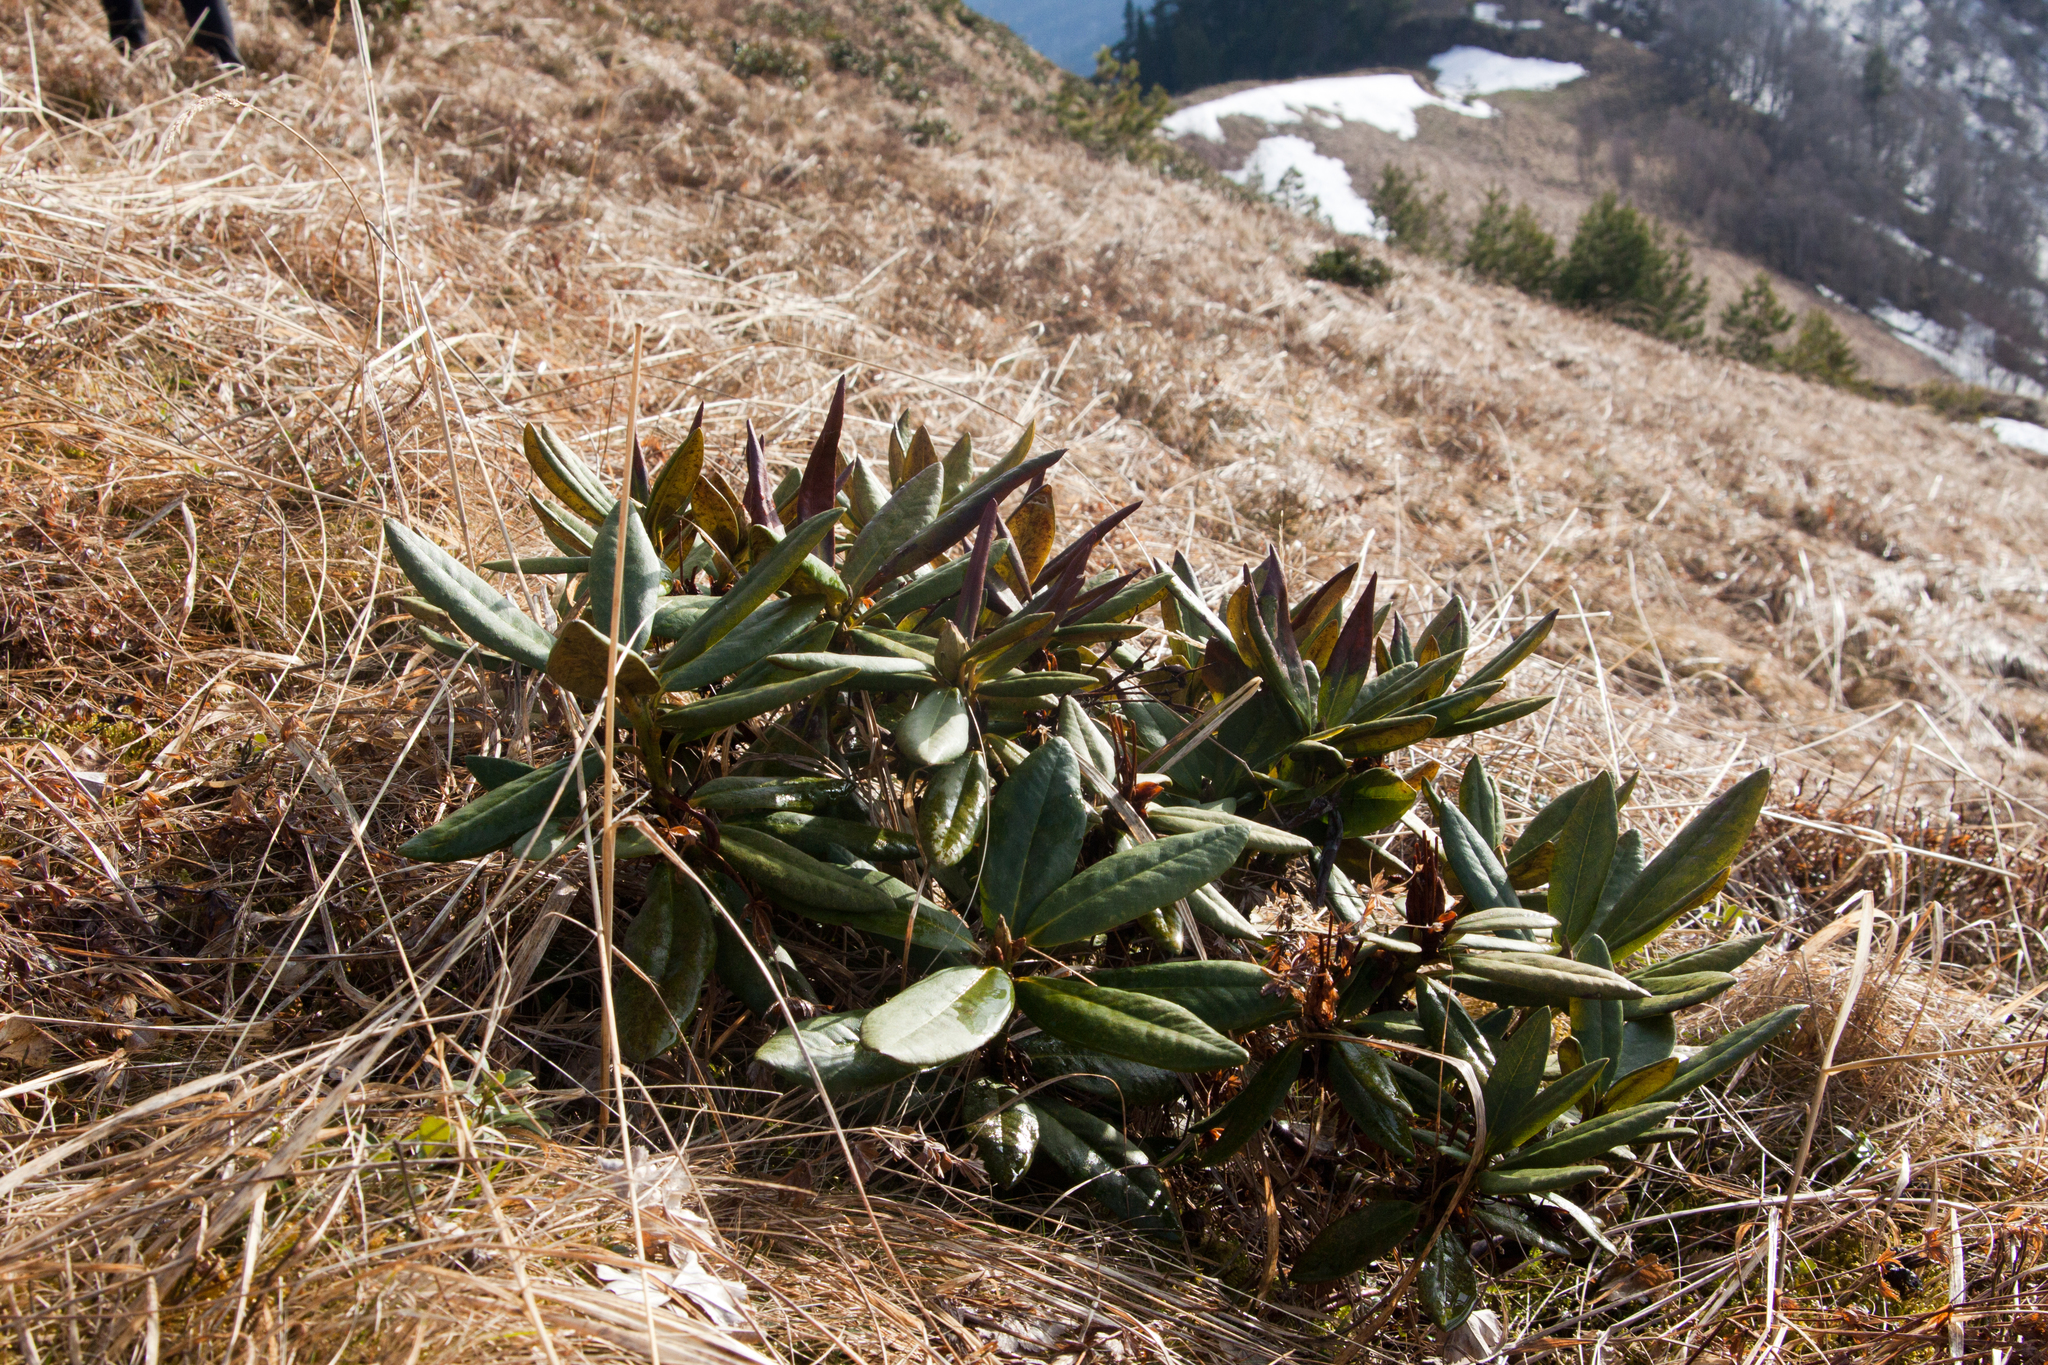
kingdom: Plantae
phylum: Tracheophyta
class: Magnoliopsida
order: Ericales
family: Ericaceae
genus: Rhododendron
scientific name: Rhododendron caucasicum
